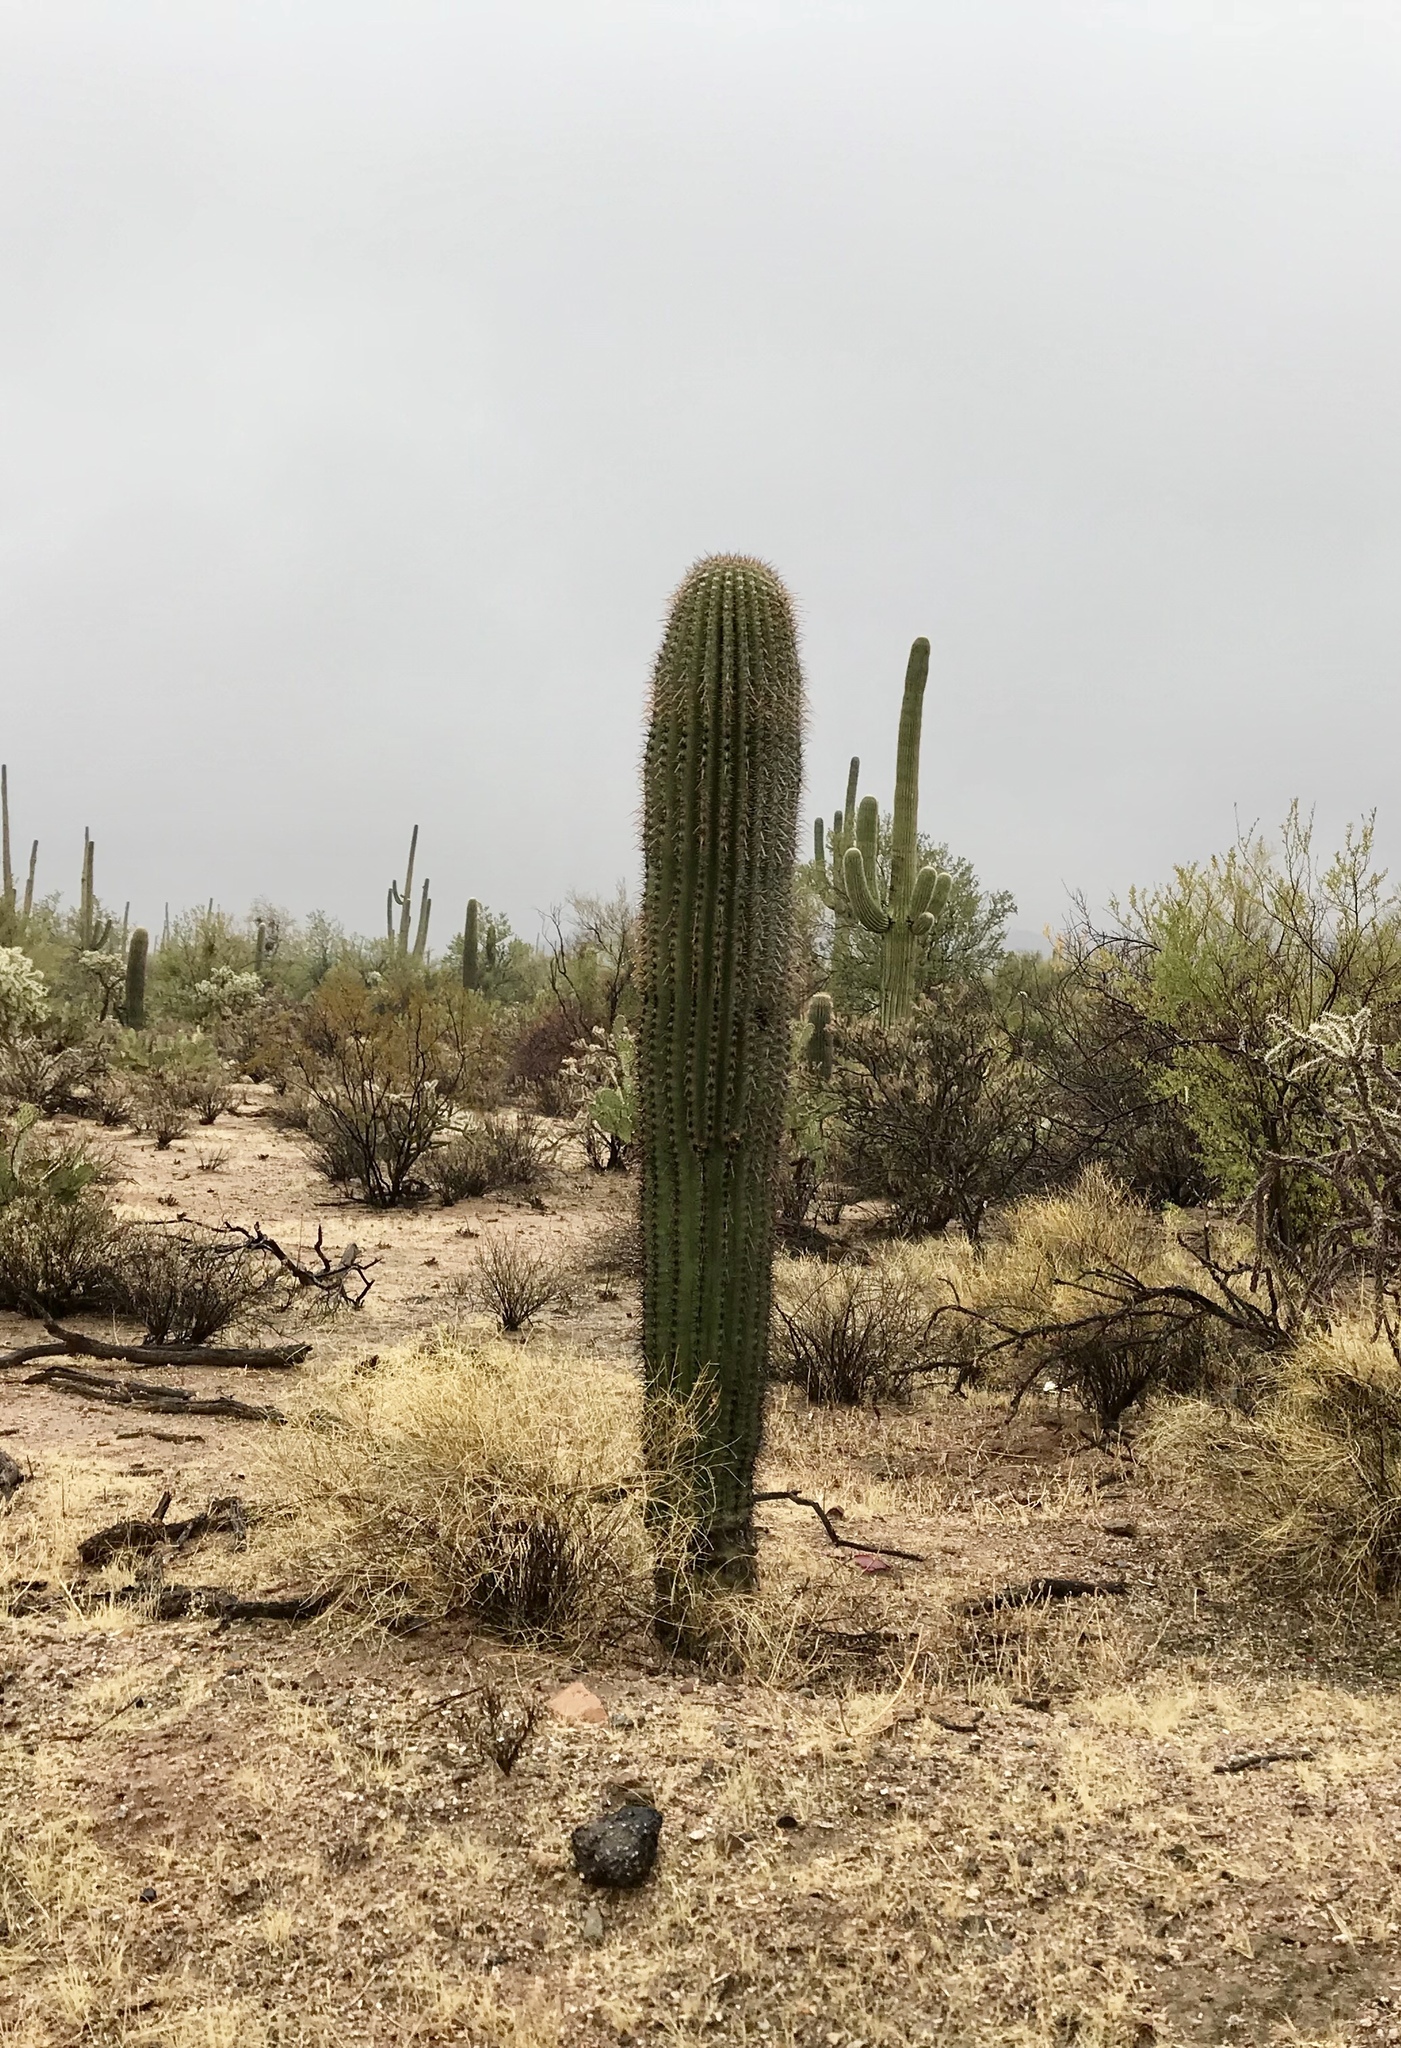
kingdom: Plantae
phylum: Tracheophyta
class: Magnoliopsida
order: Caryophyllales
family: Cactaceae
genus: Carnegiea
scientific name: Carnegiea gigantea
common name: Saguaro
